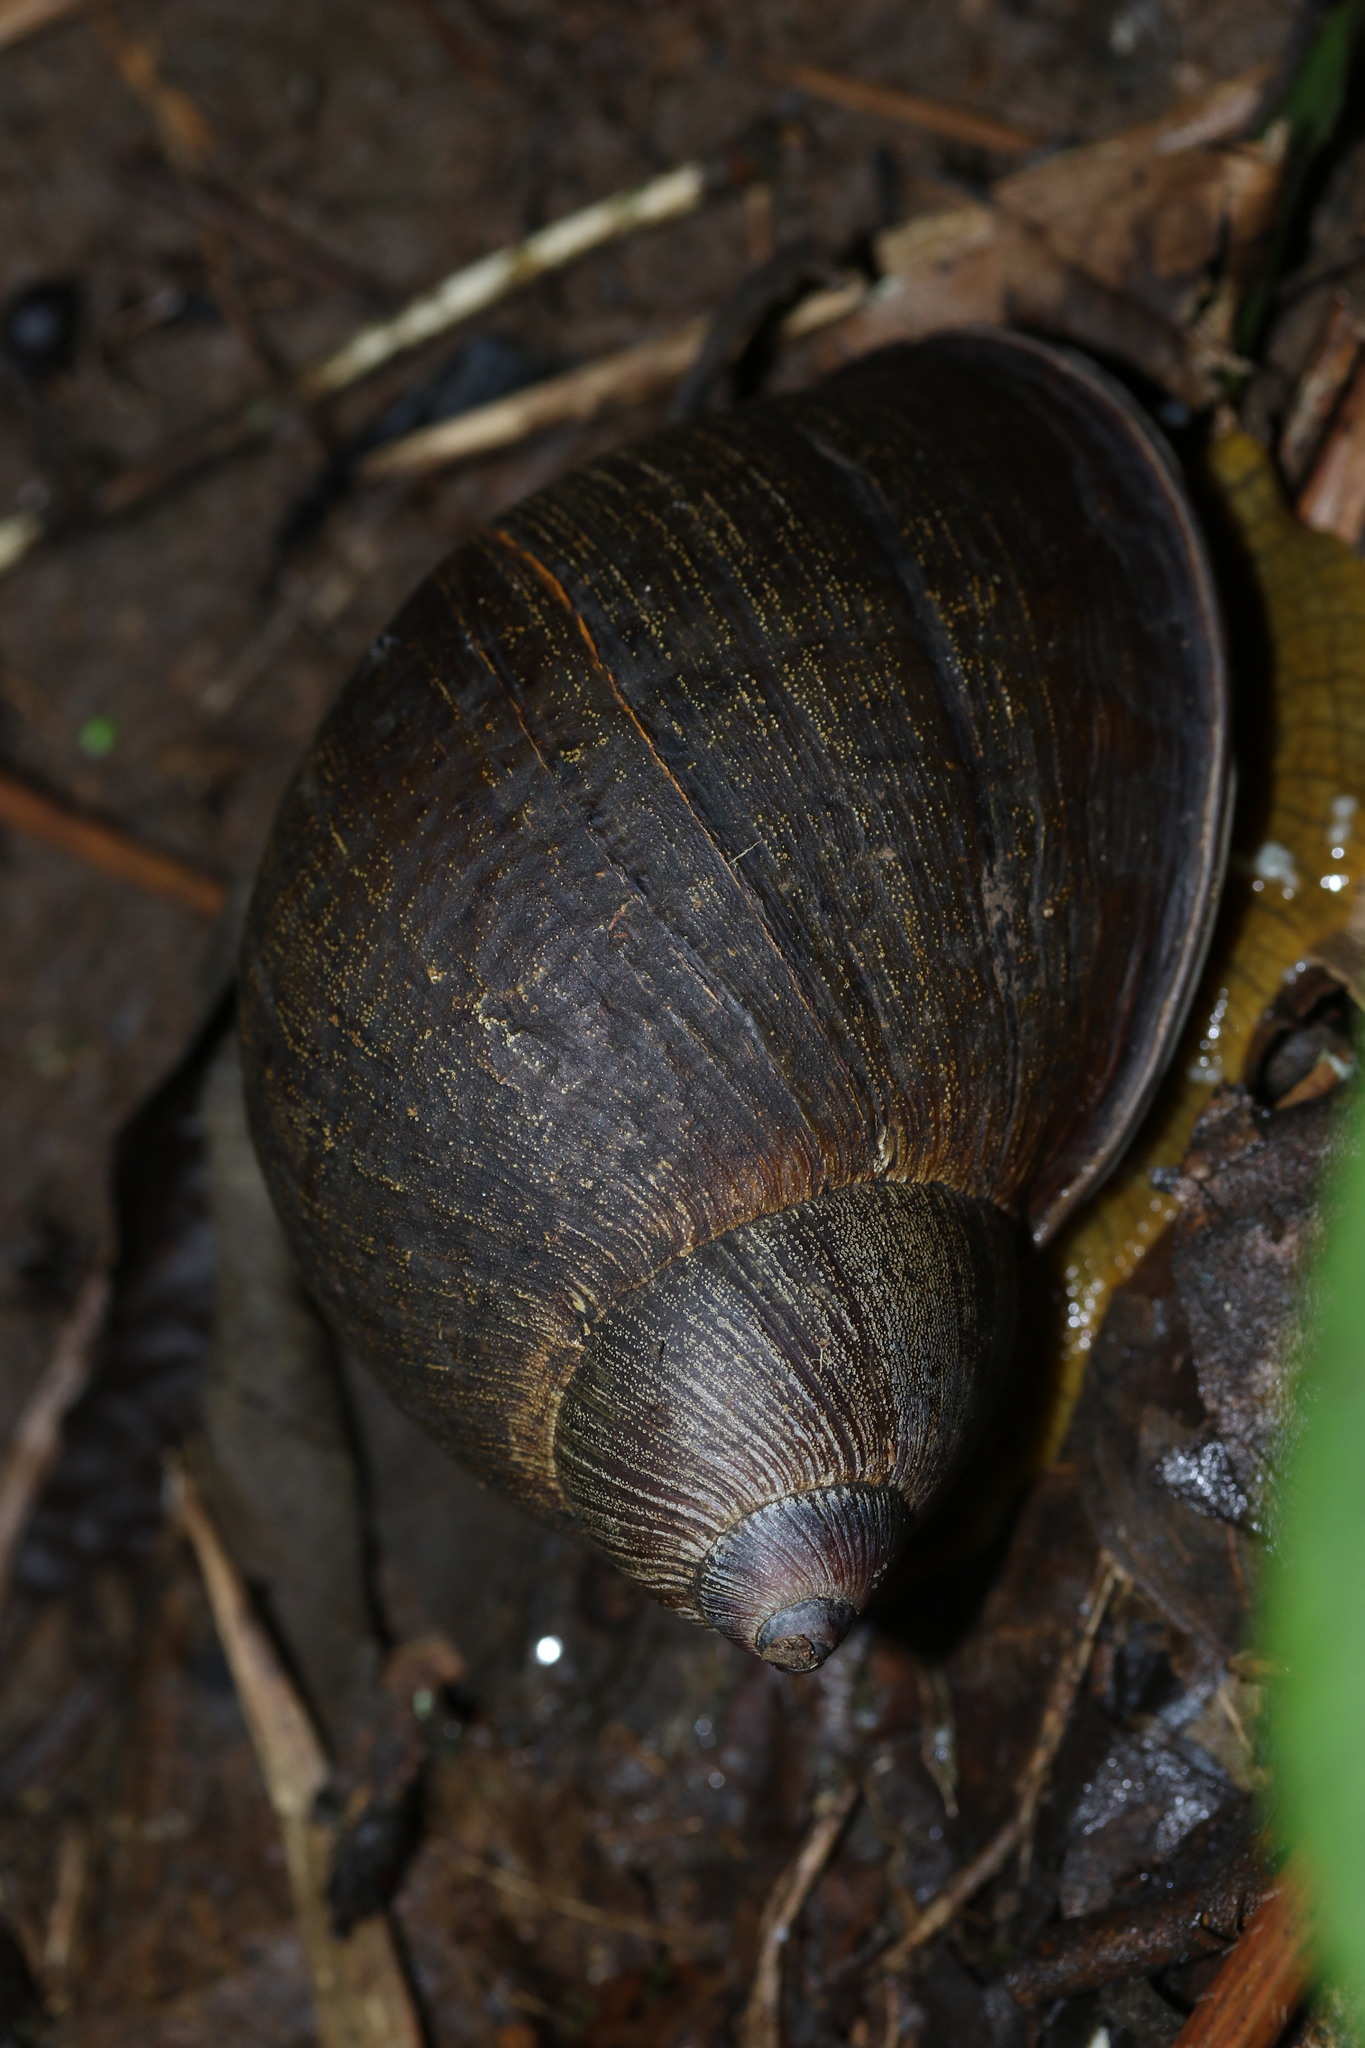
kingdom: Animalia
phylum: Mollusca
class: Gastropoda
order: Stylommatophora
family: Amphibulimidae
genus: Plekocheilus
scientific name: Plekocheilus gibbonius
